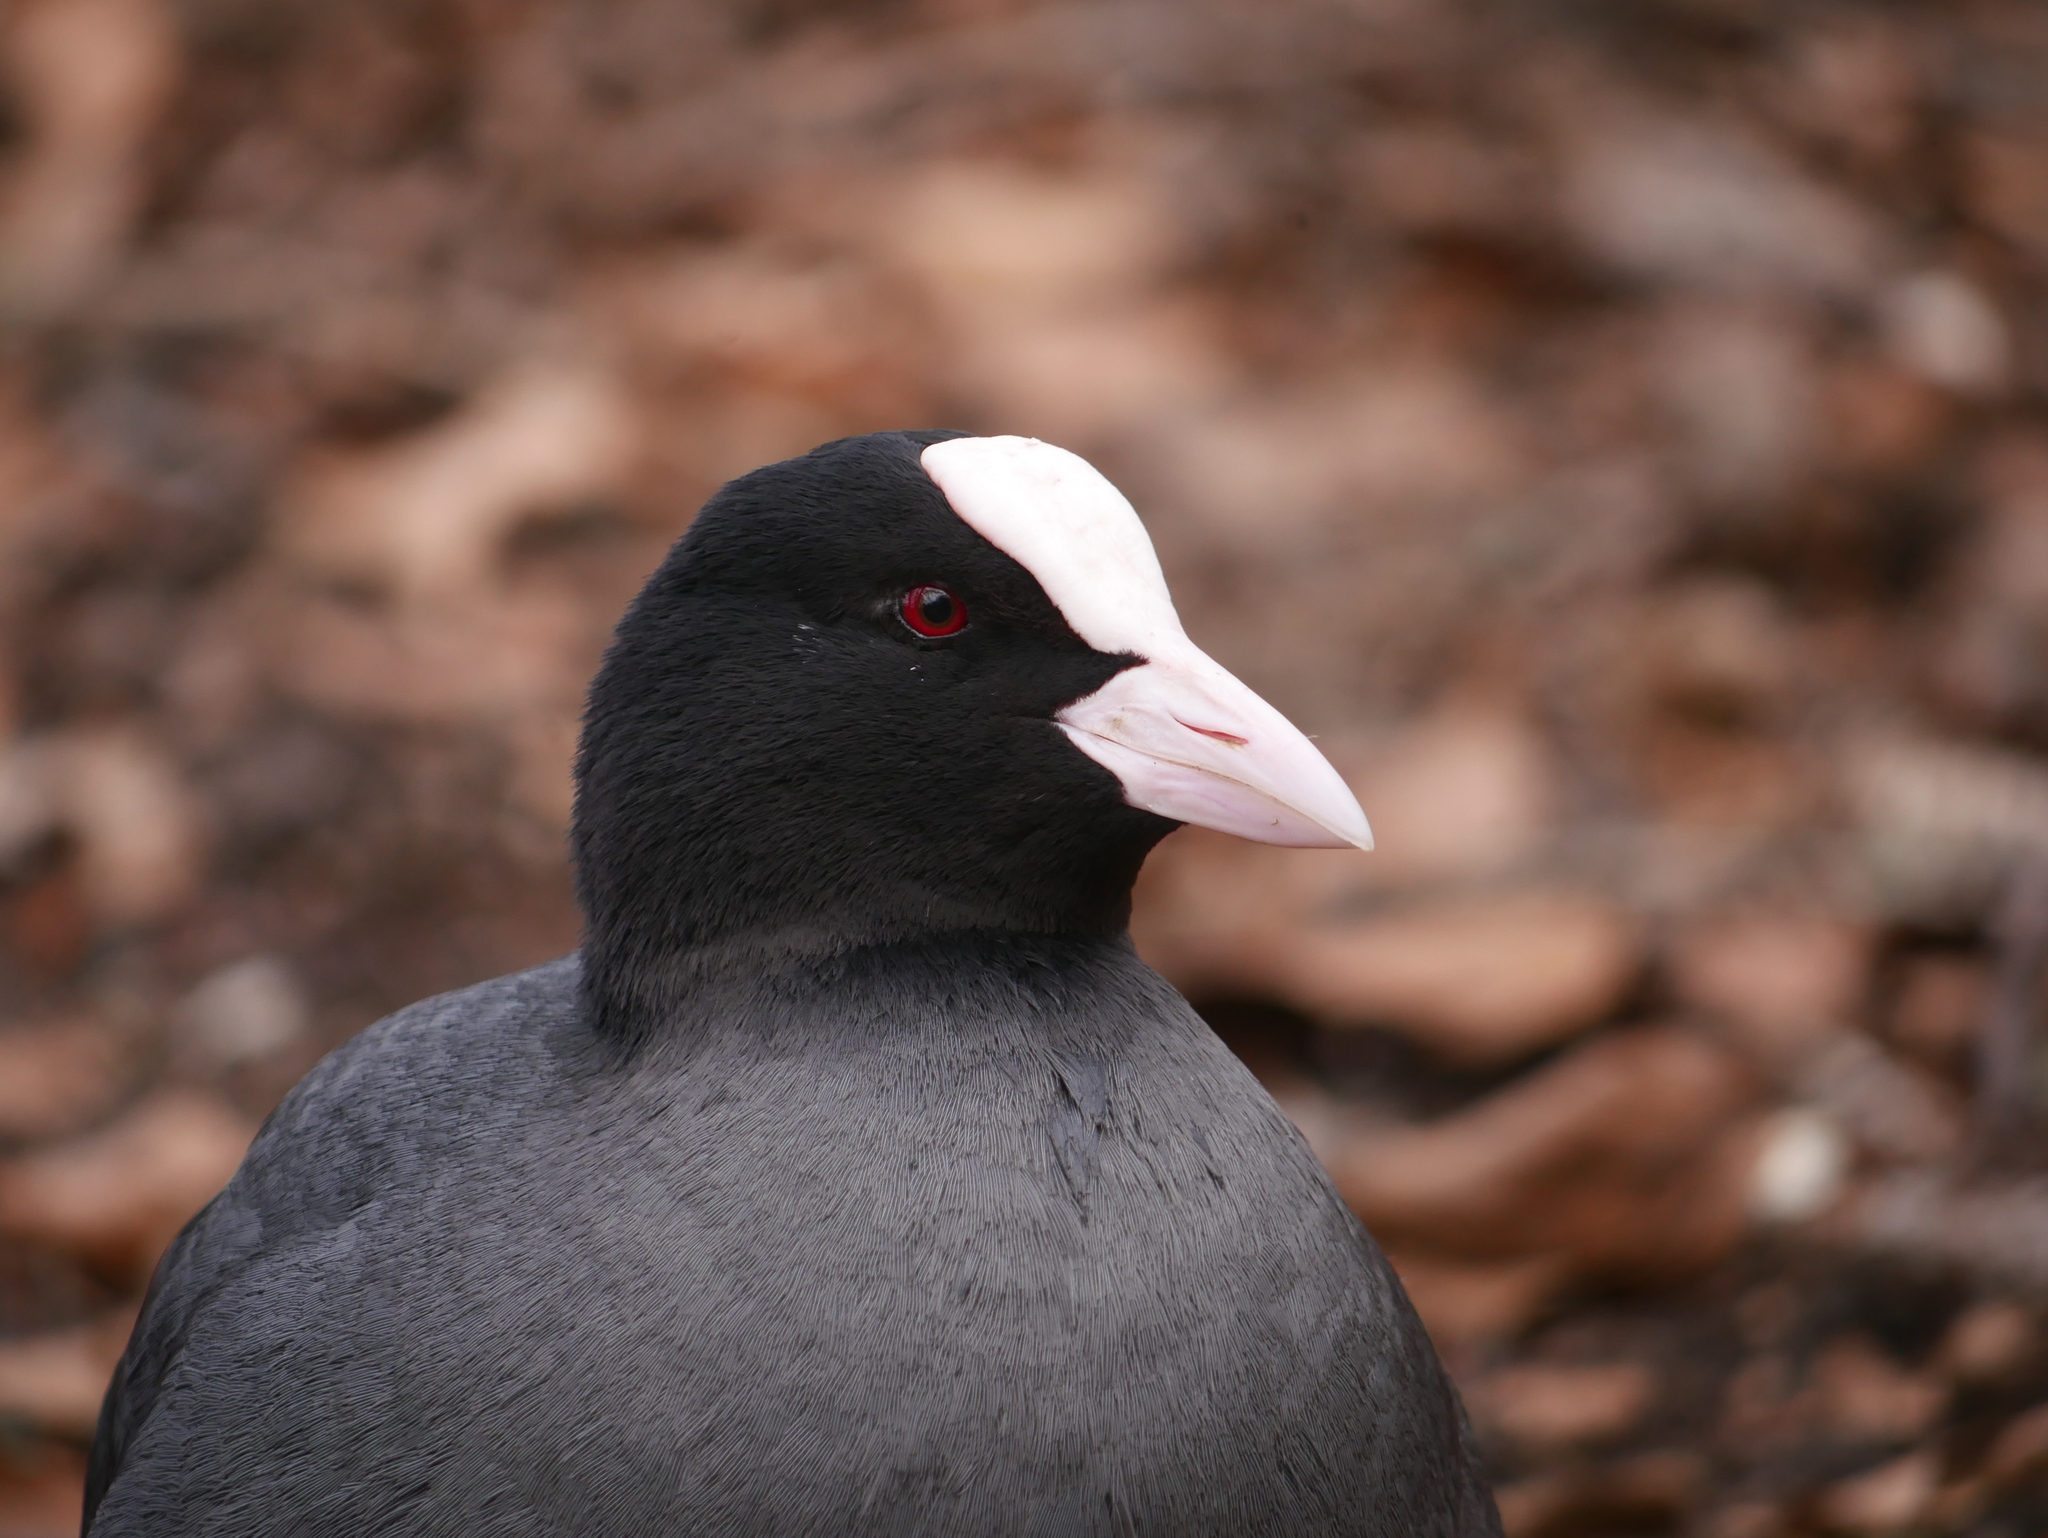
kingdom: Animalia
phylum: Chordata
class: Aves
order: Gruiformes
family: Rallidae
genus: Fulica
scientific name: Fulica atra
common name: Eurasian coot
